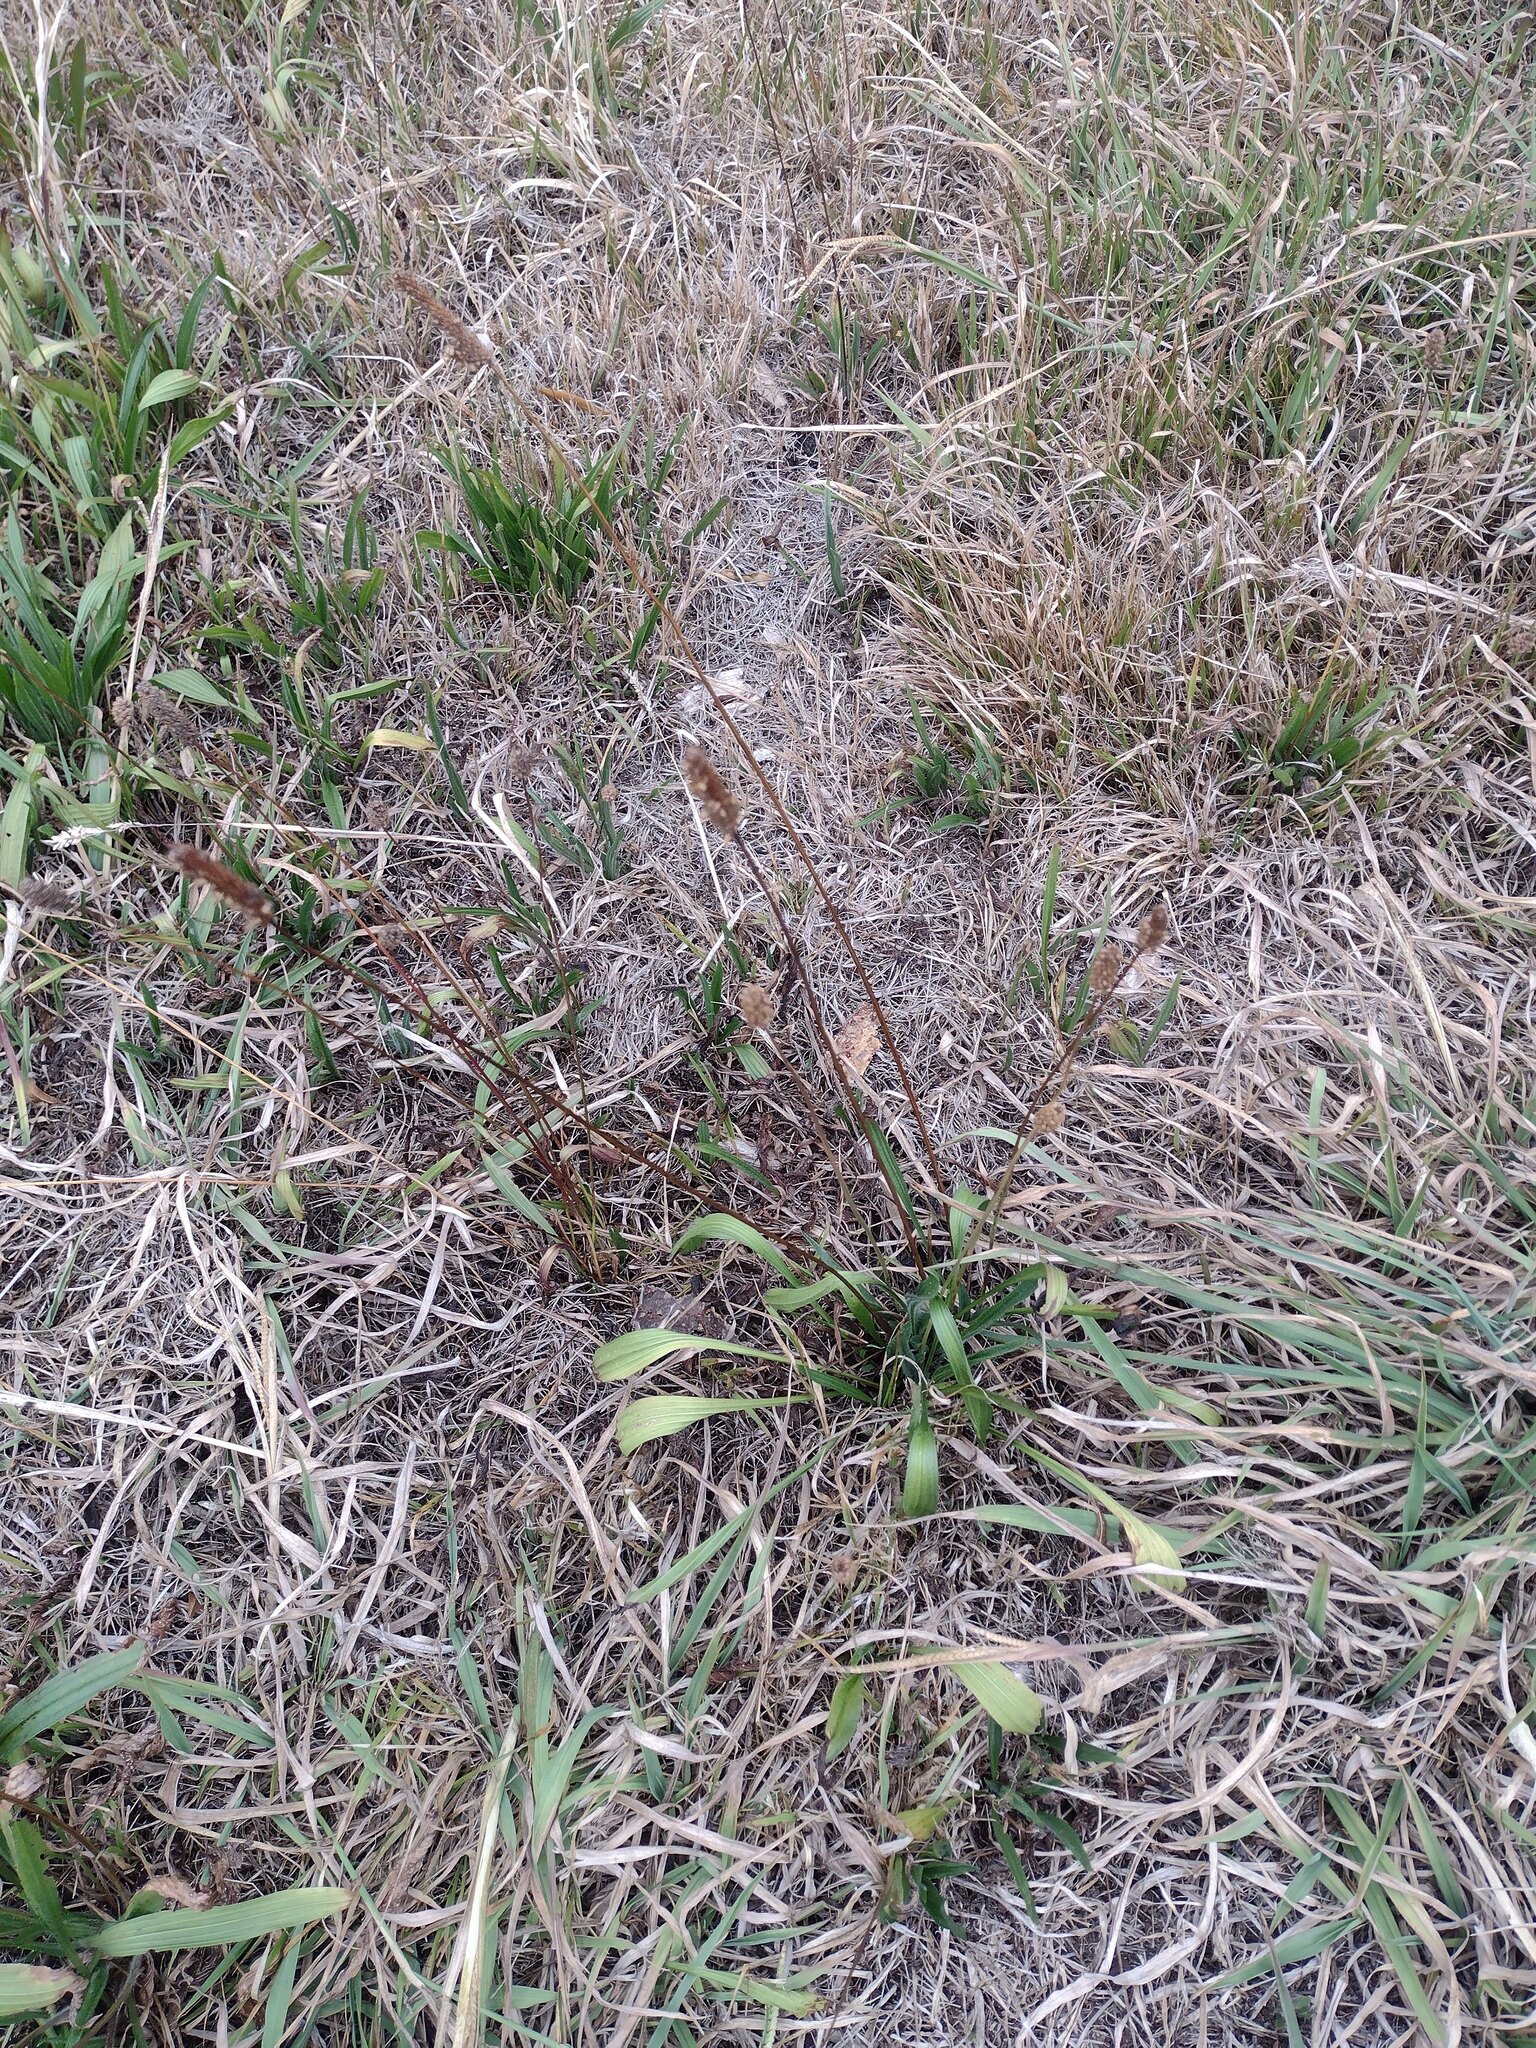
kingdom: Plantae
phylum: Tracheophyta
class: Magnoliopsida
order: Lamiales
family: Plantaginaceae
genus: Plantago
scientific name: Plantago lanceolata
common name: Ribwort plantain
